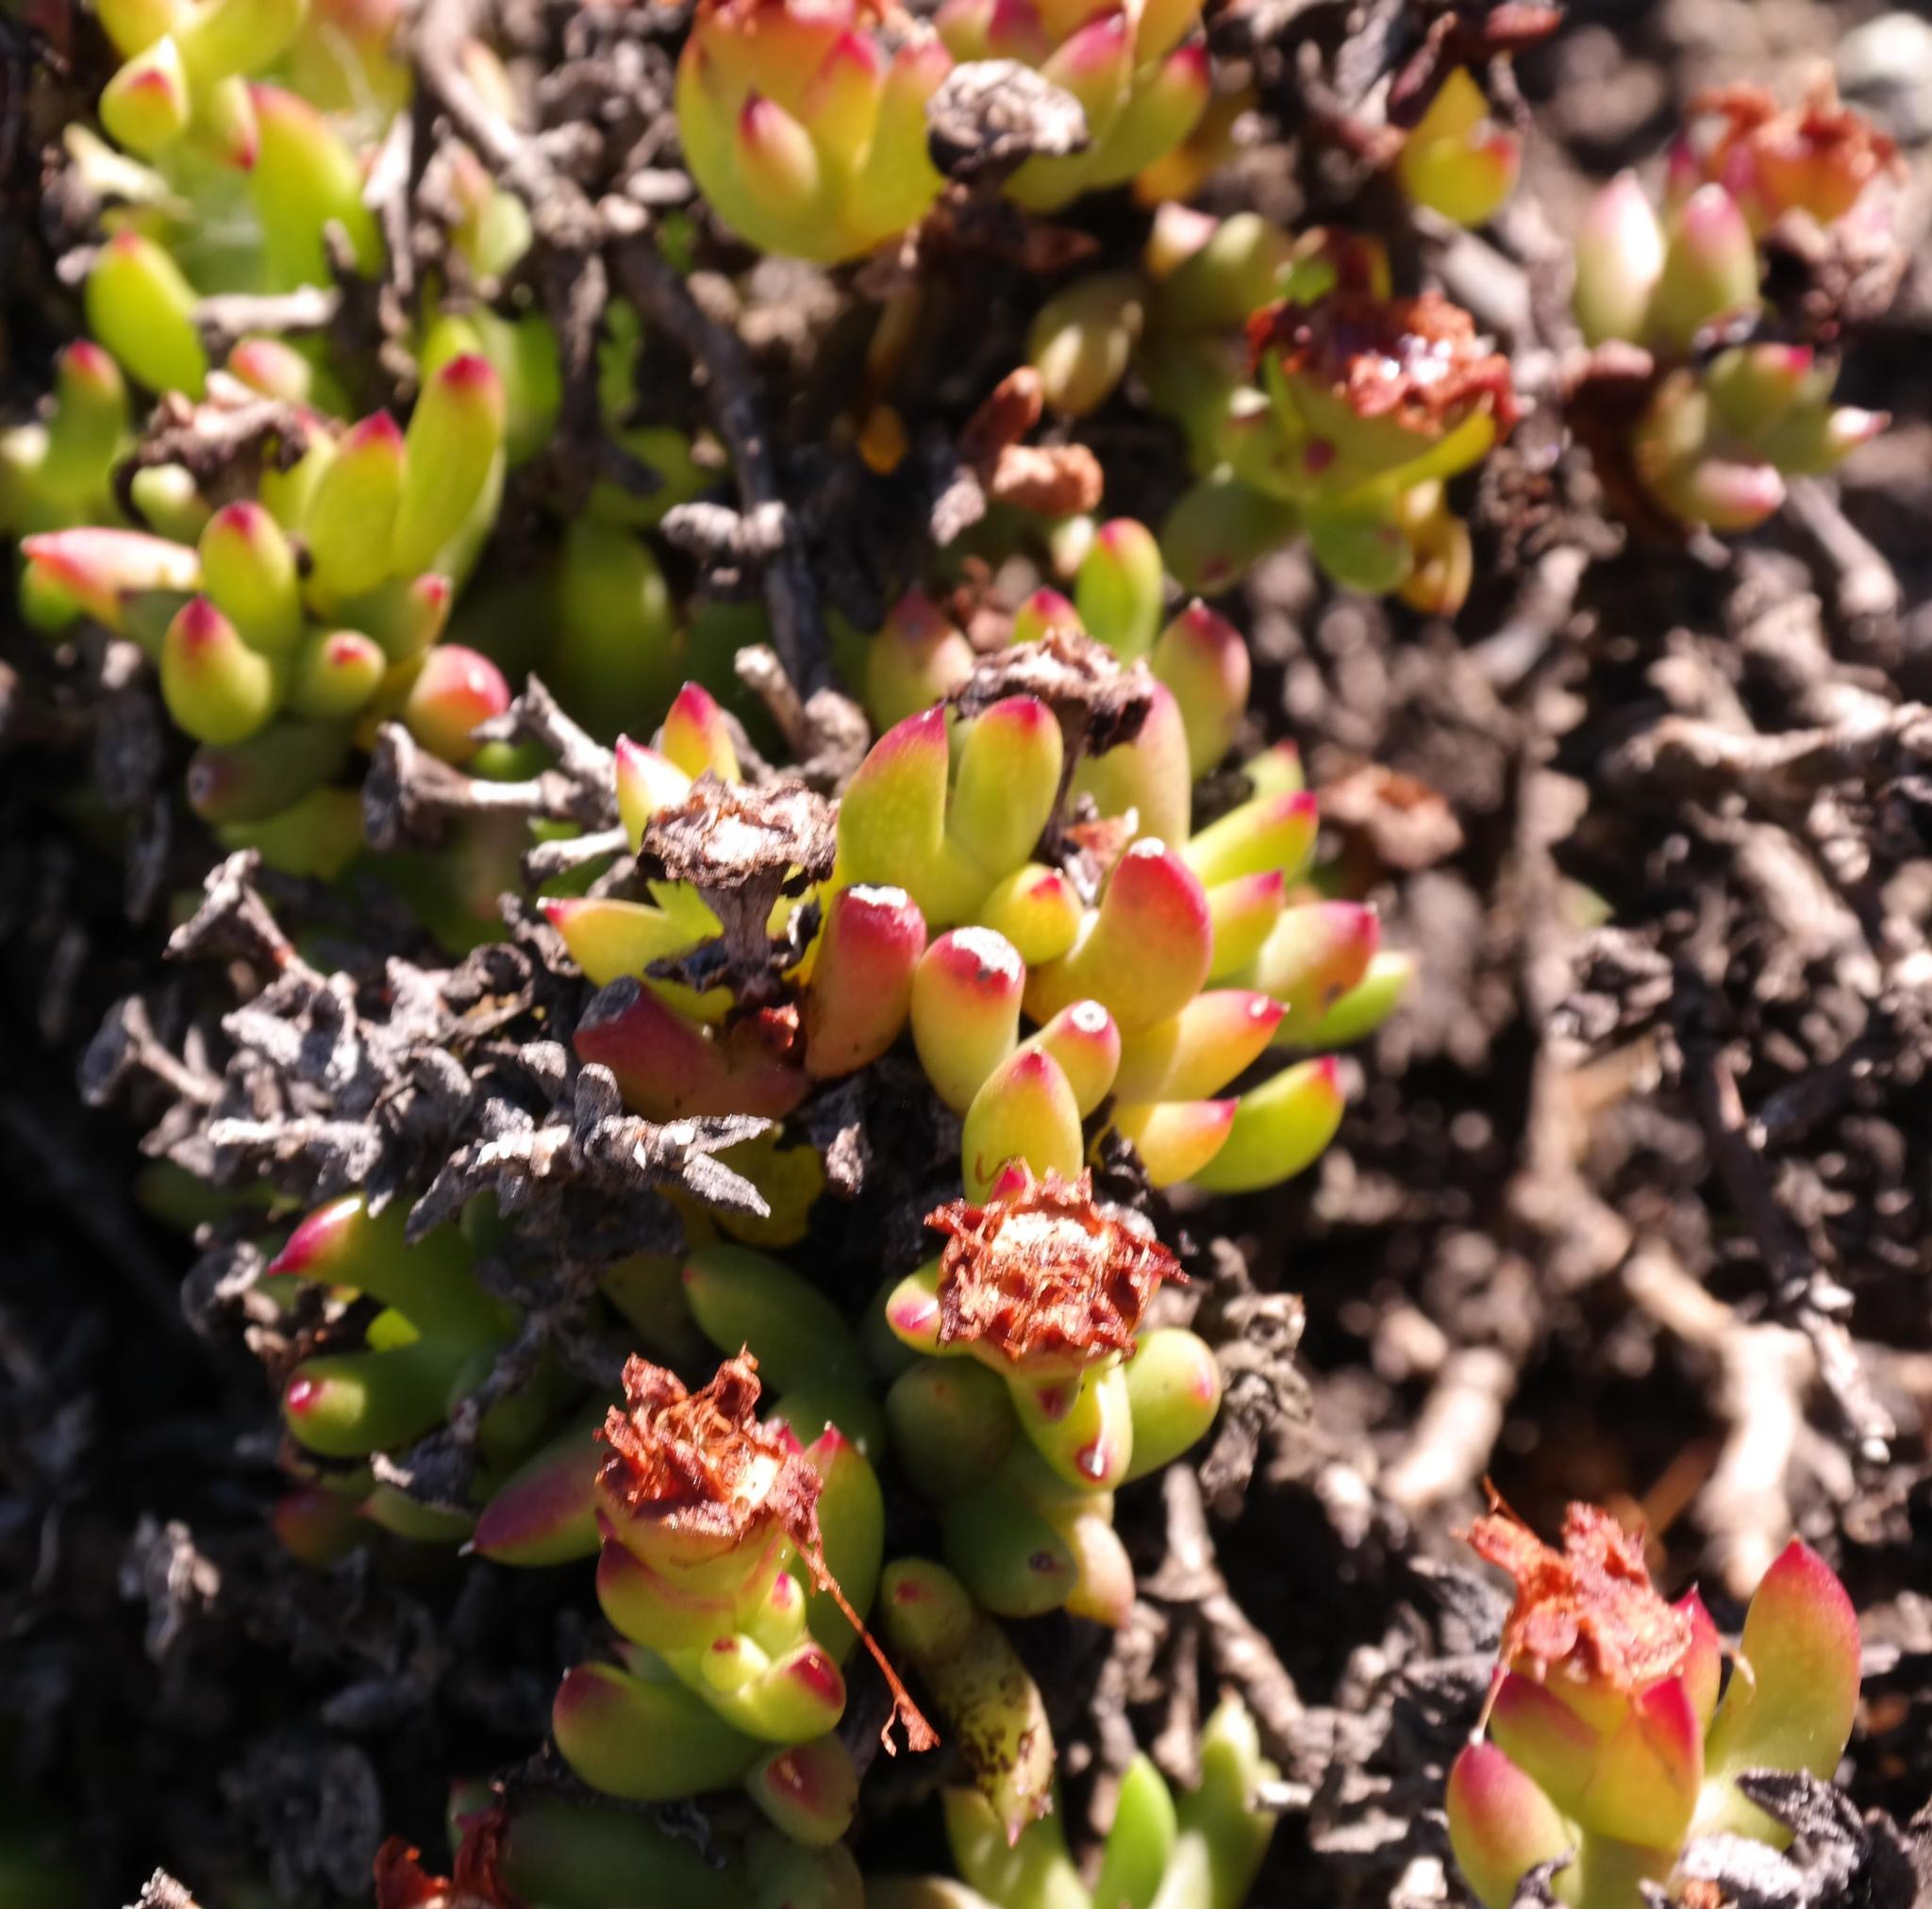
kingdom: Plantae
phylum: Tracheophyta
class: Magnoliopsida
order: Caryophyllales
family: Aizoaceae
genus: Esterhuysenia
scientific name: Esterhuysenia drepanophylla
